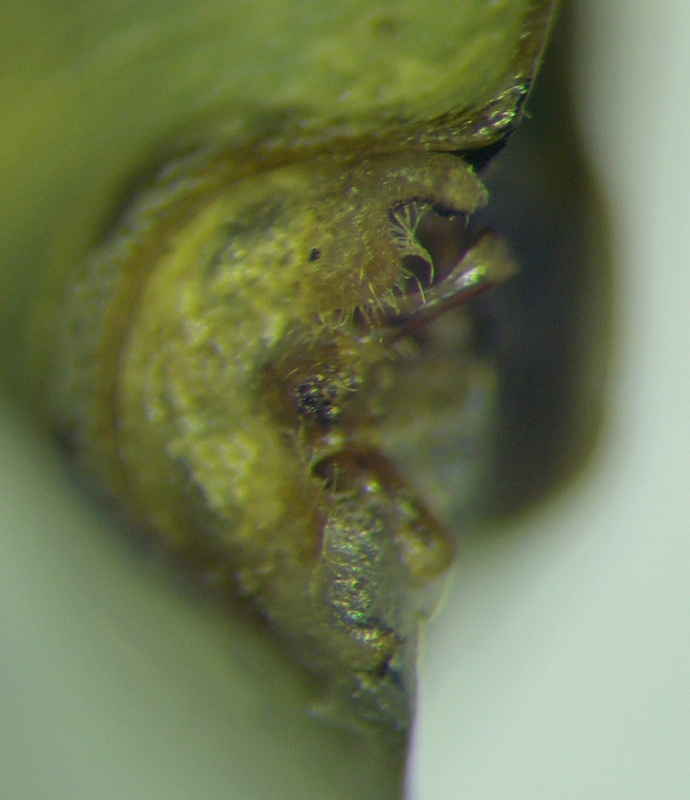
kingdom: Animalia
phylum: Arthropoda
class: Insecta
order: Hemiptera
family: Pentatomidae
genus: Antheminia
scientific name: Antheminia lunulata
